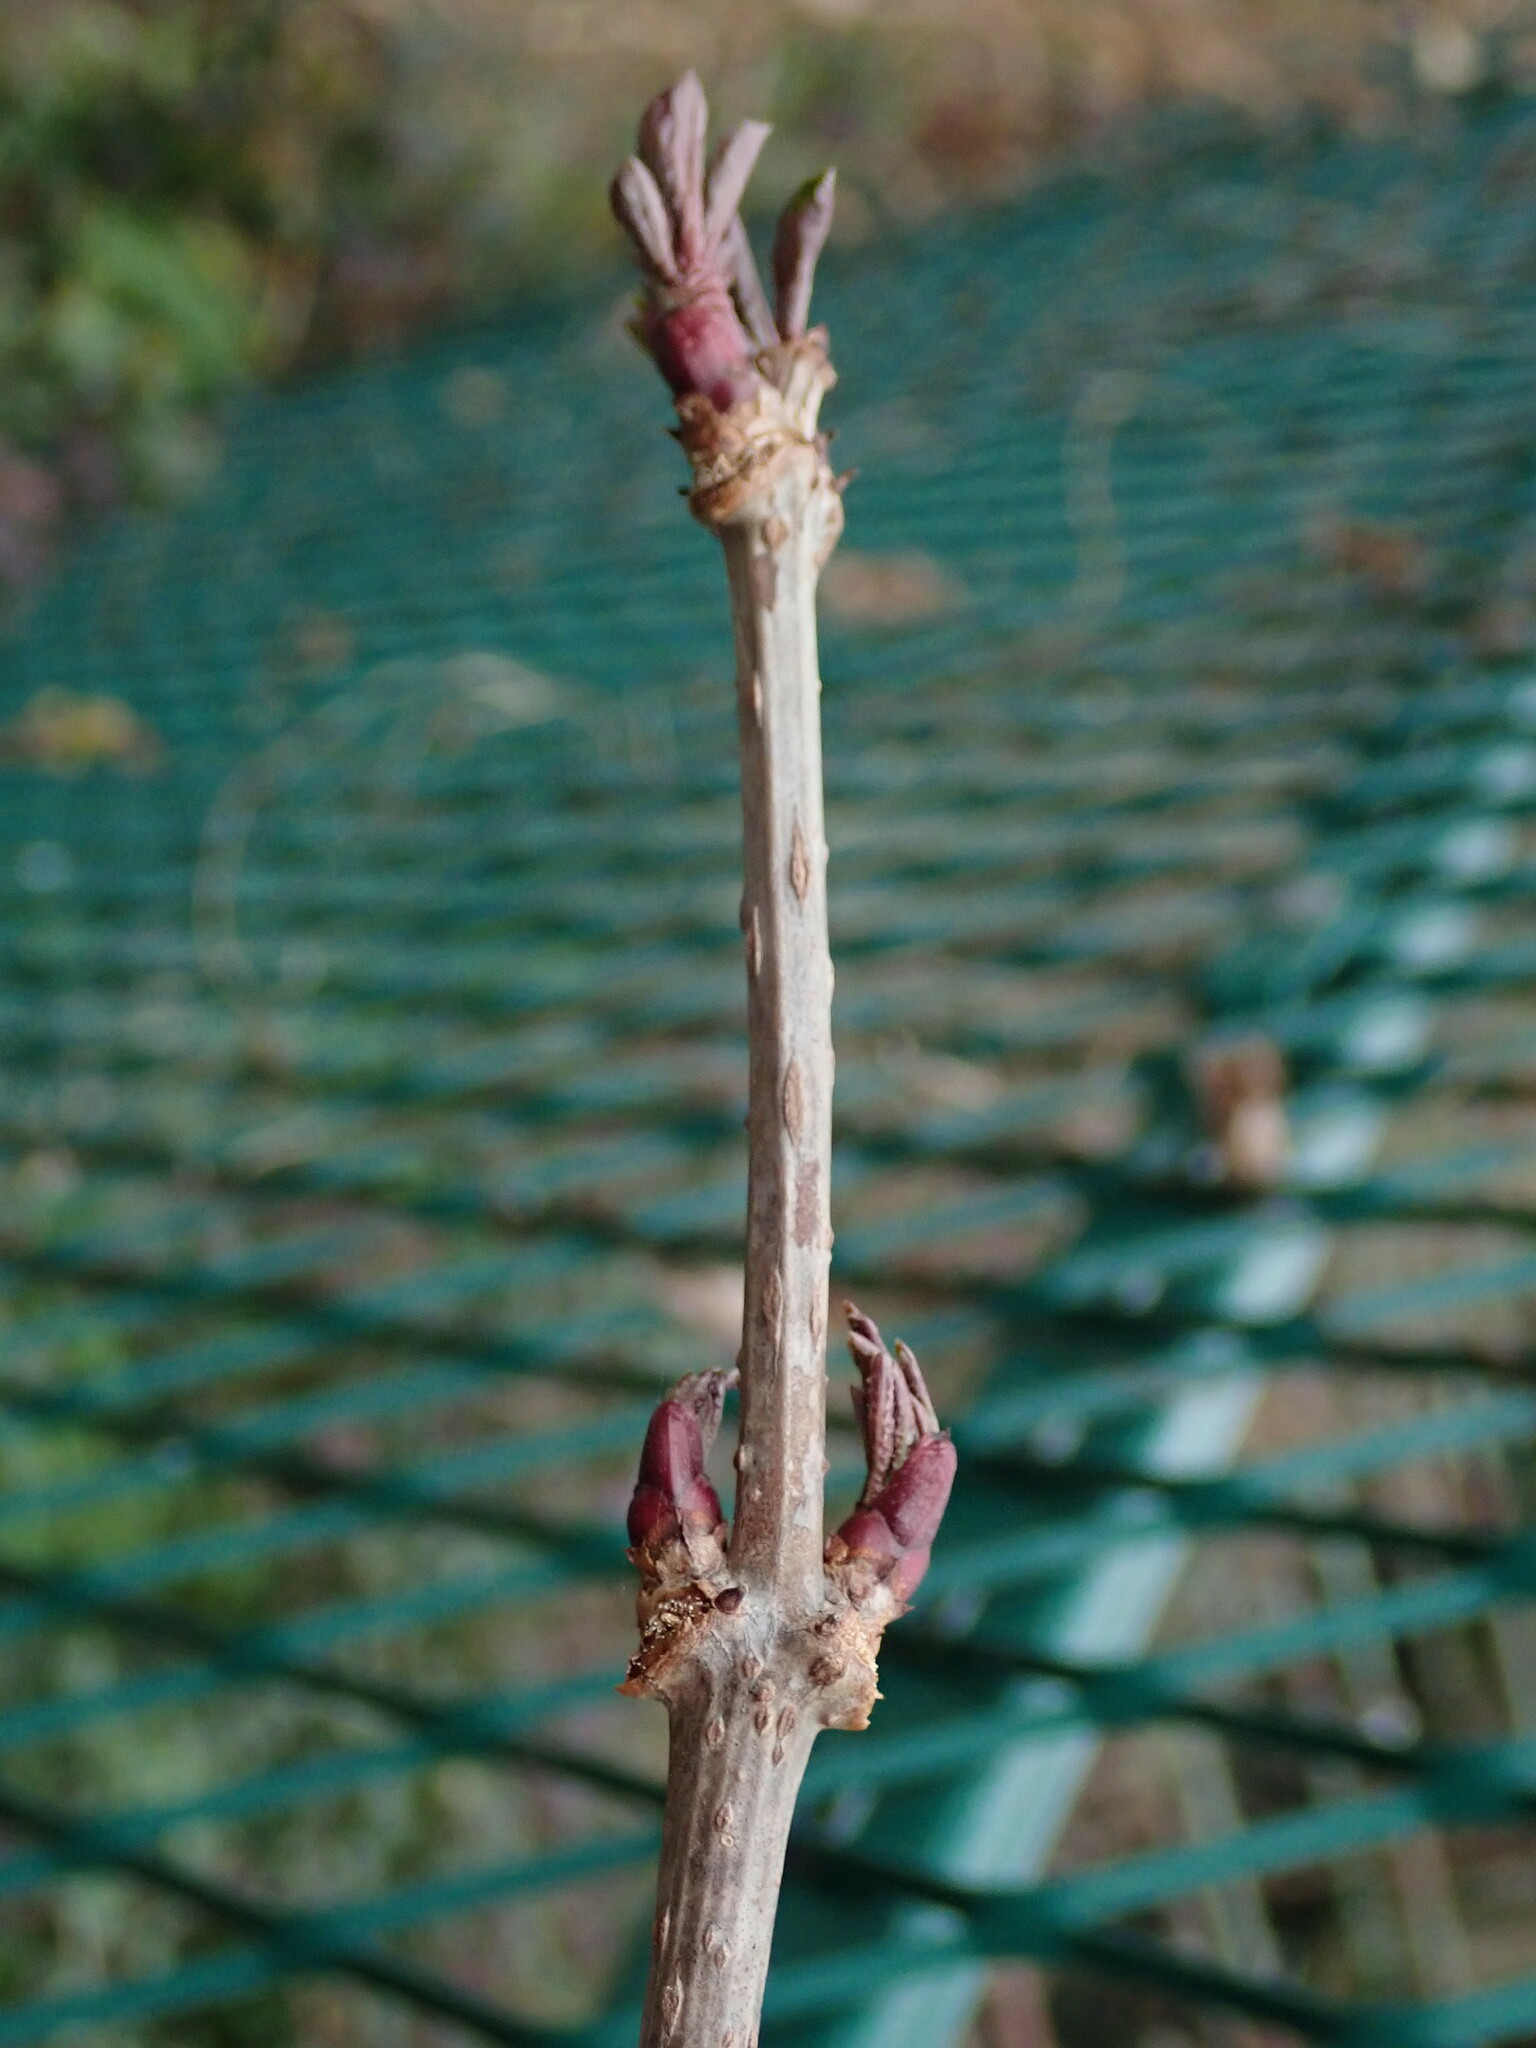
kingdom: Plantae
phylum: Tracheophyta
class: Magnoliopsida
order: Dipsacales
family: Viburnaceae
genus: Sambucus
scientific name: Sambucus nigra
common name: Elder
